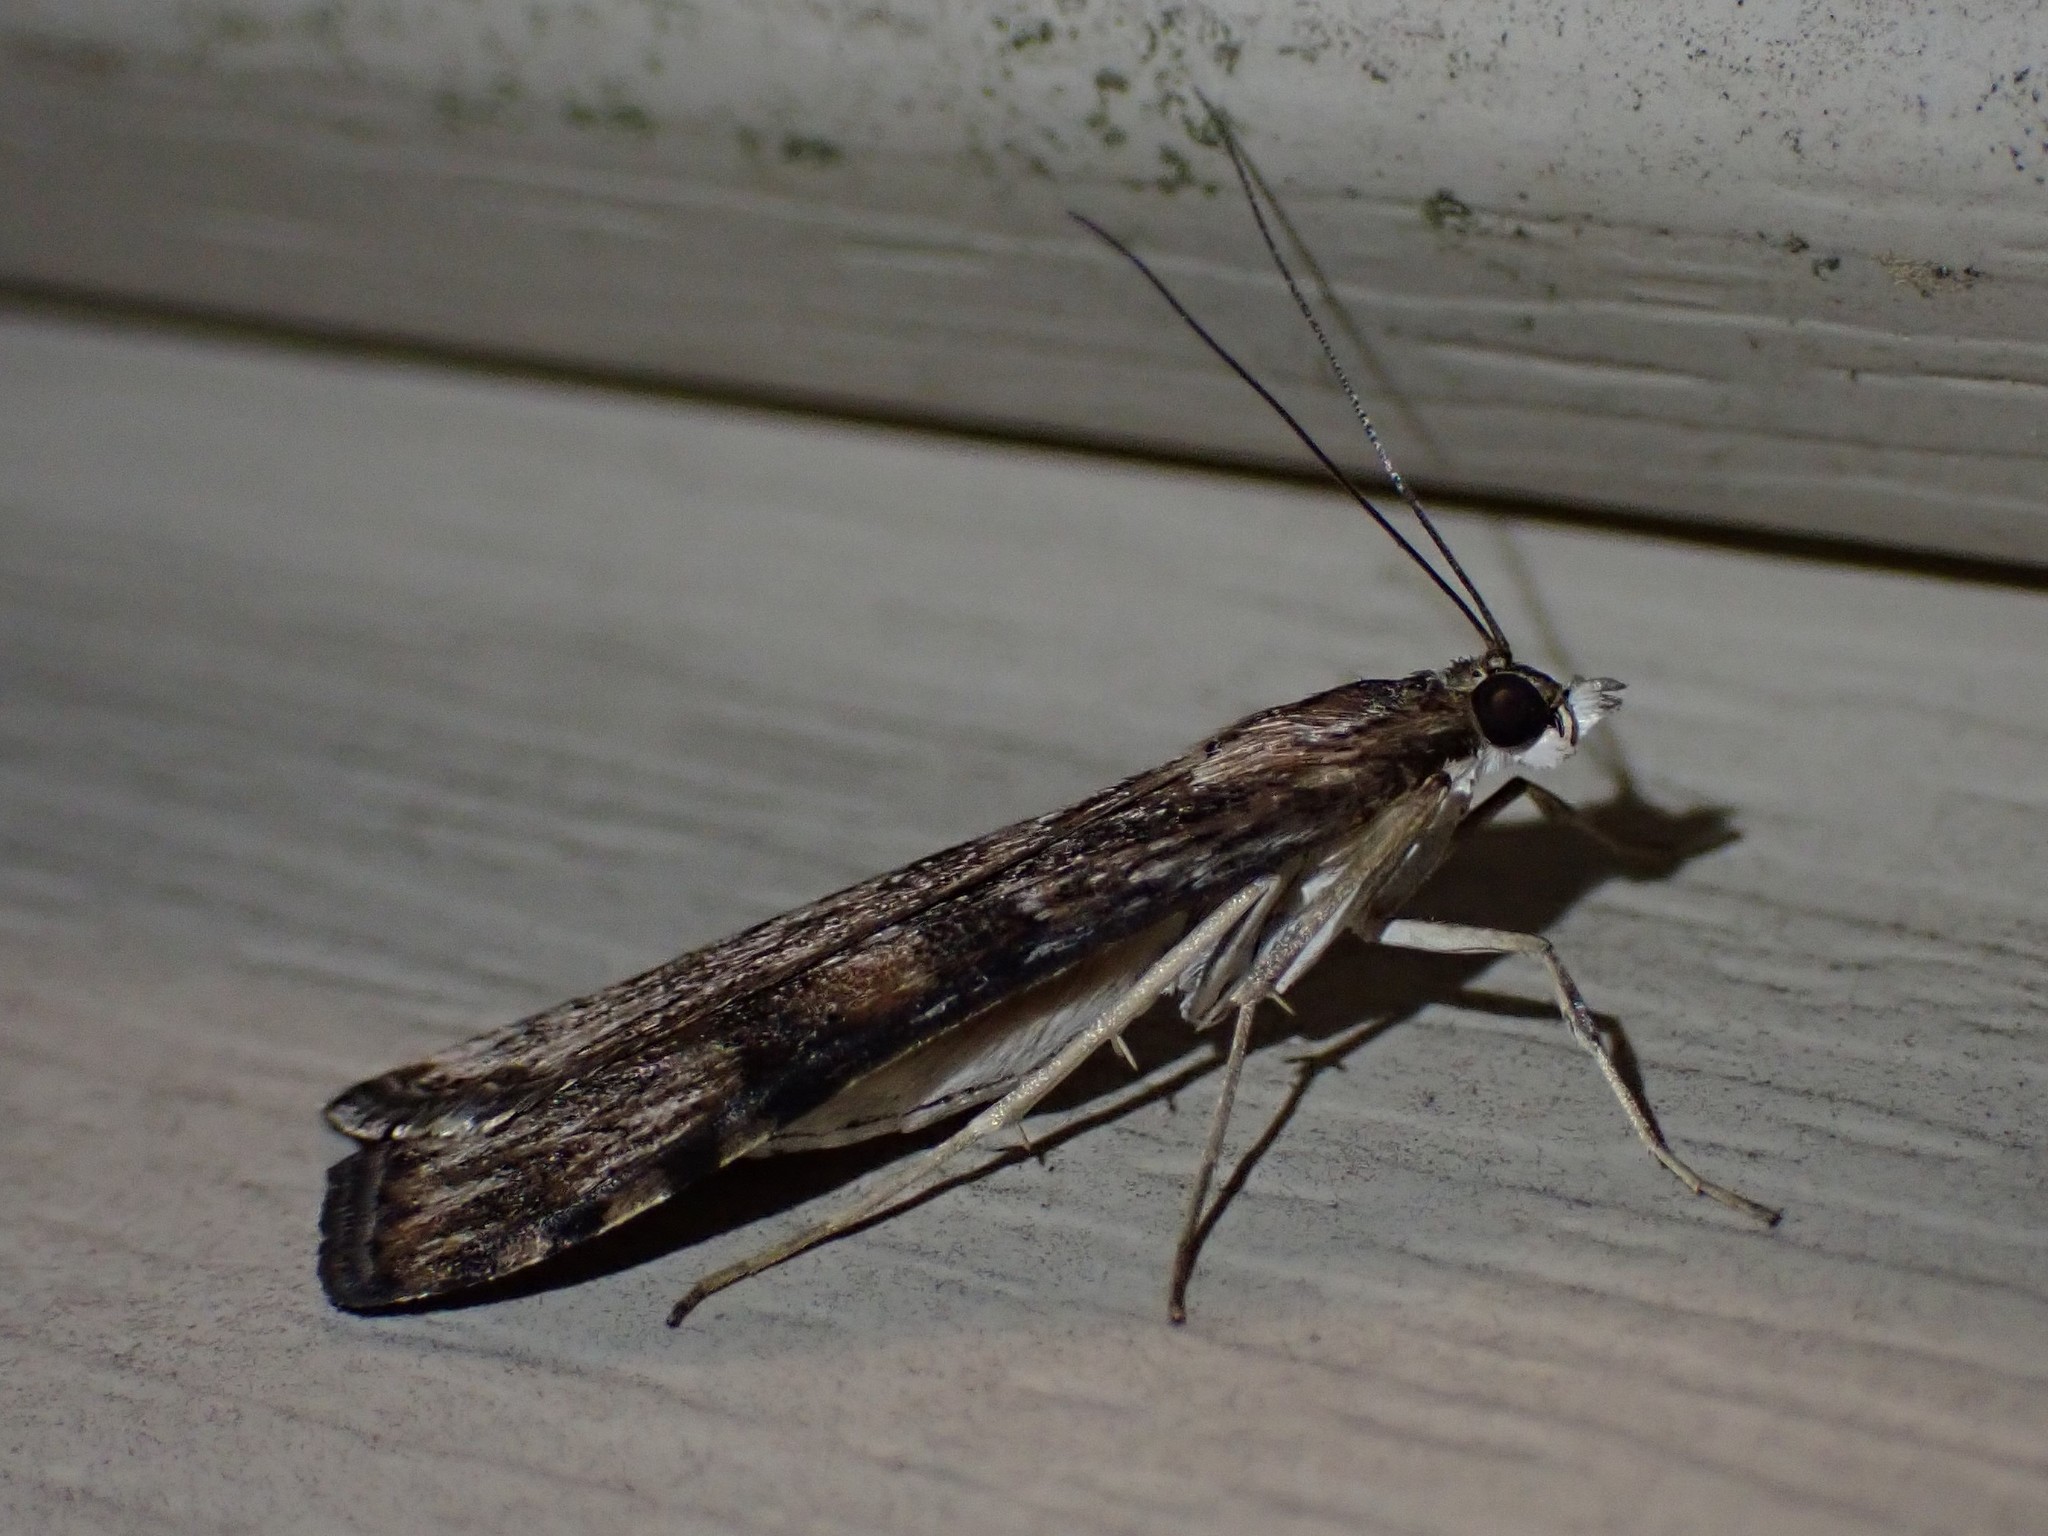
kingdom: Animalia
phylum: Arthropoda
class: Insecta
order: Lepidoptera
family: Crambidae
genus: Nomophila
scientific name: Nomophila nearctica
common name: American rush veneer
